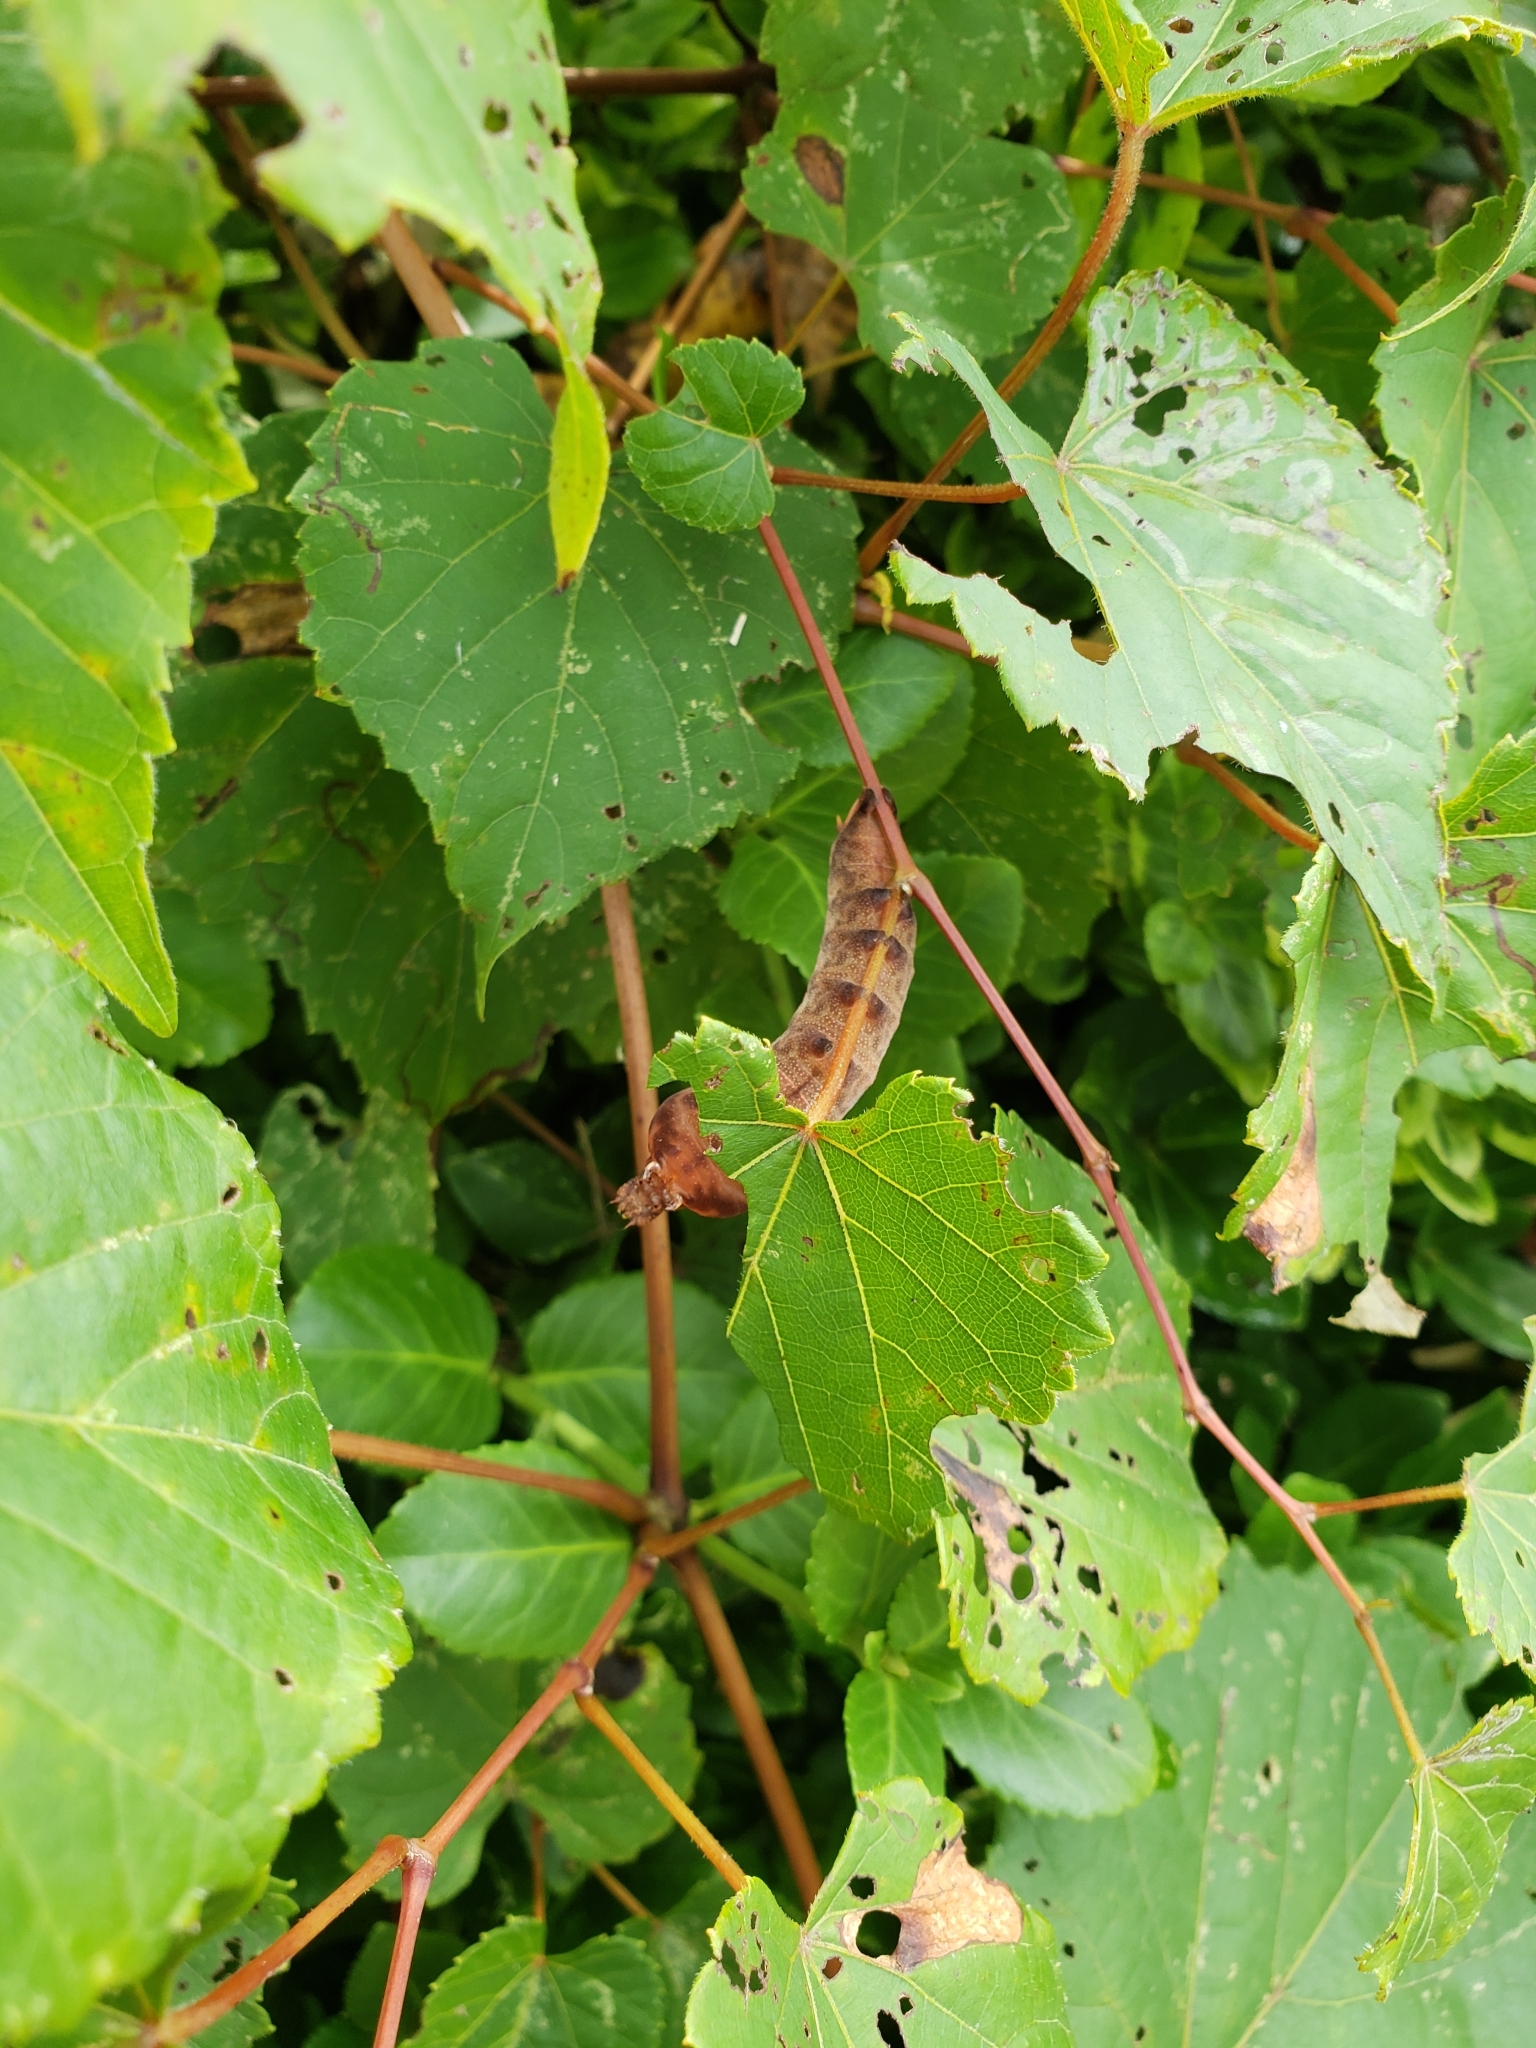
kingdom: Animalia
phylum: Arthropoda
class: Insecta
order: Lepidoptera
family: Sphingidae
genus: Darapsa
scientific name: Darapsa myron
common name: Hog sphinx
